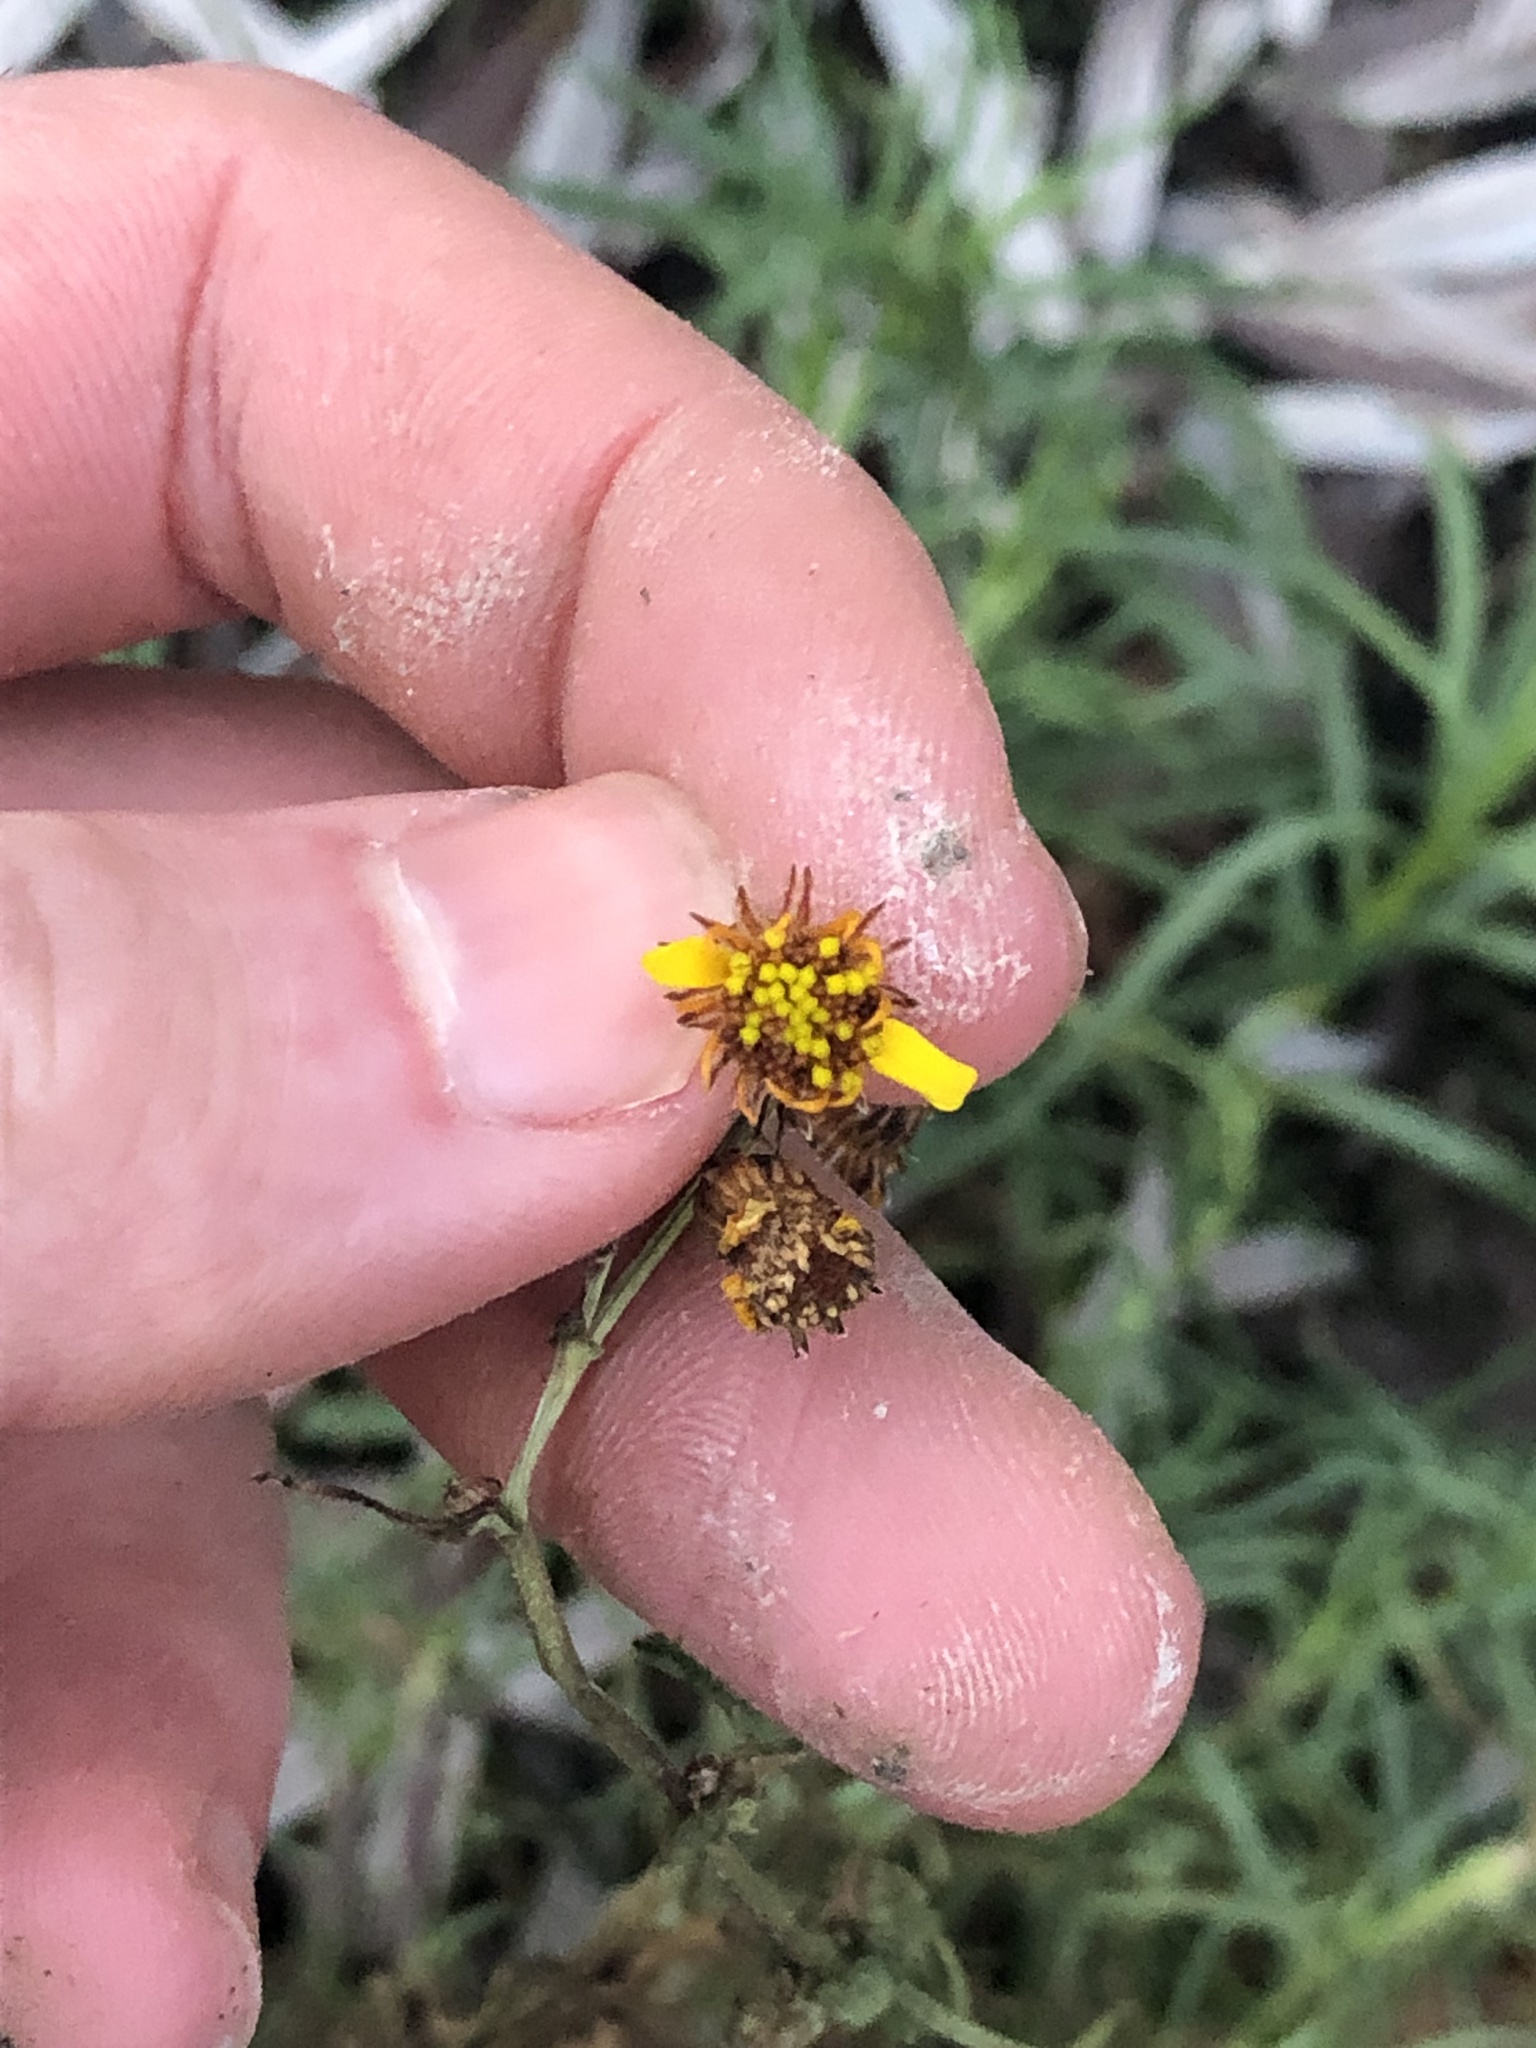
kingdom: Plantae
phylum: Tracheophyta
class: Magnoliopsida
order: Asterales
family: Asteraceae
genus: Senecio
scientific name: Senecio inaequidens
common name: Narrow-leaved ragwort
